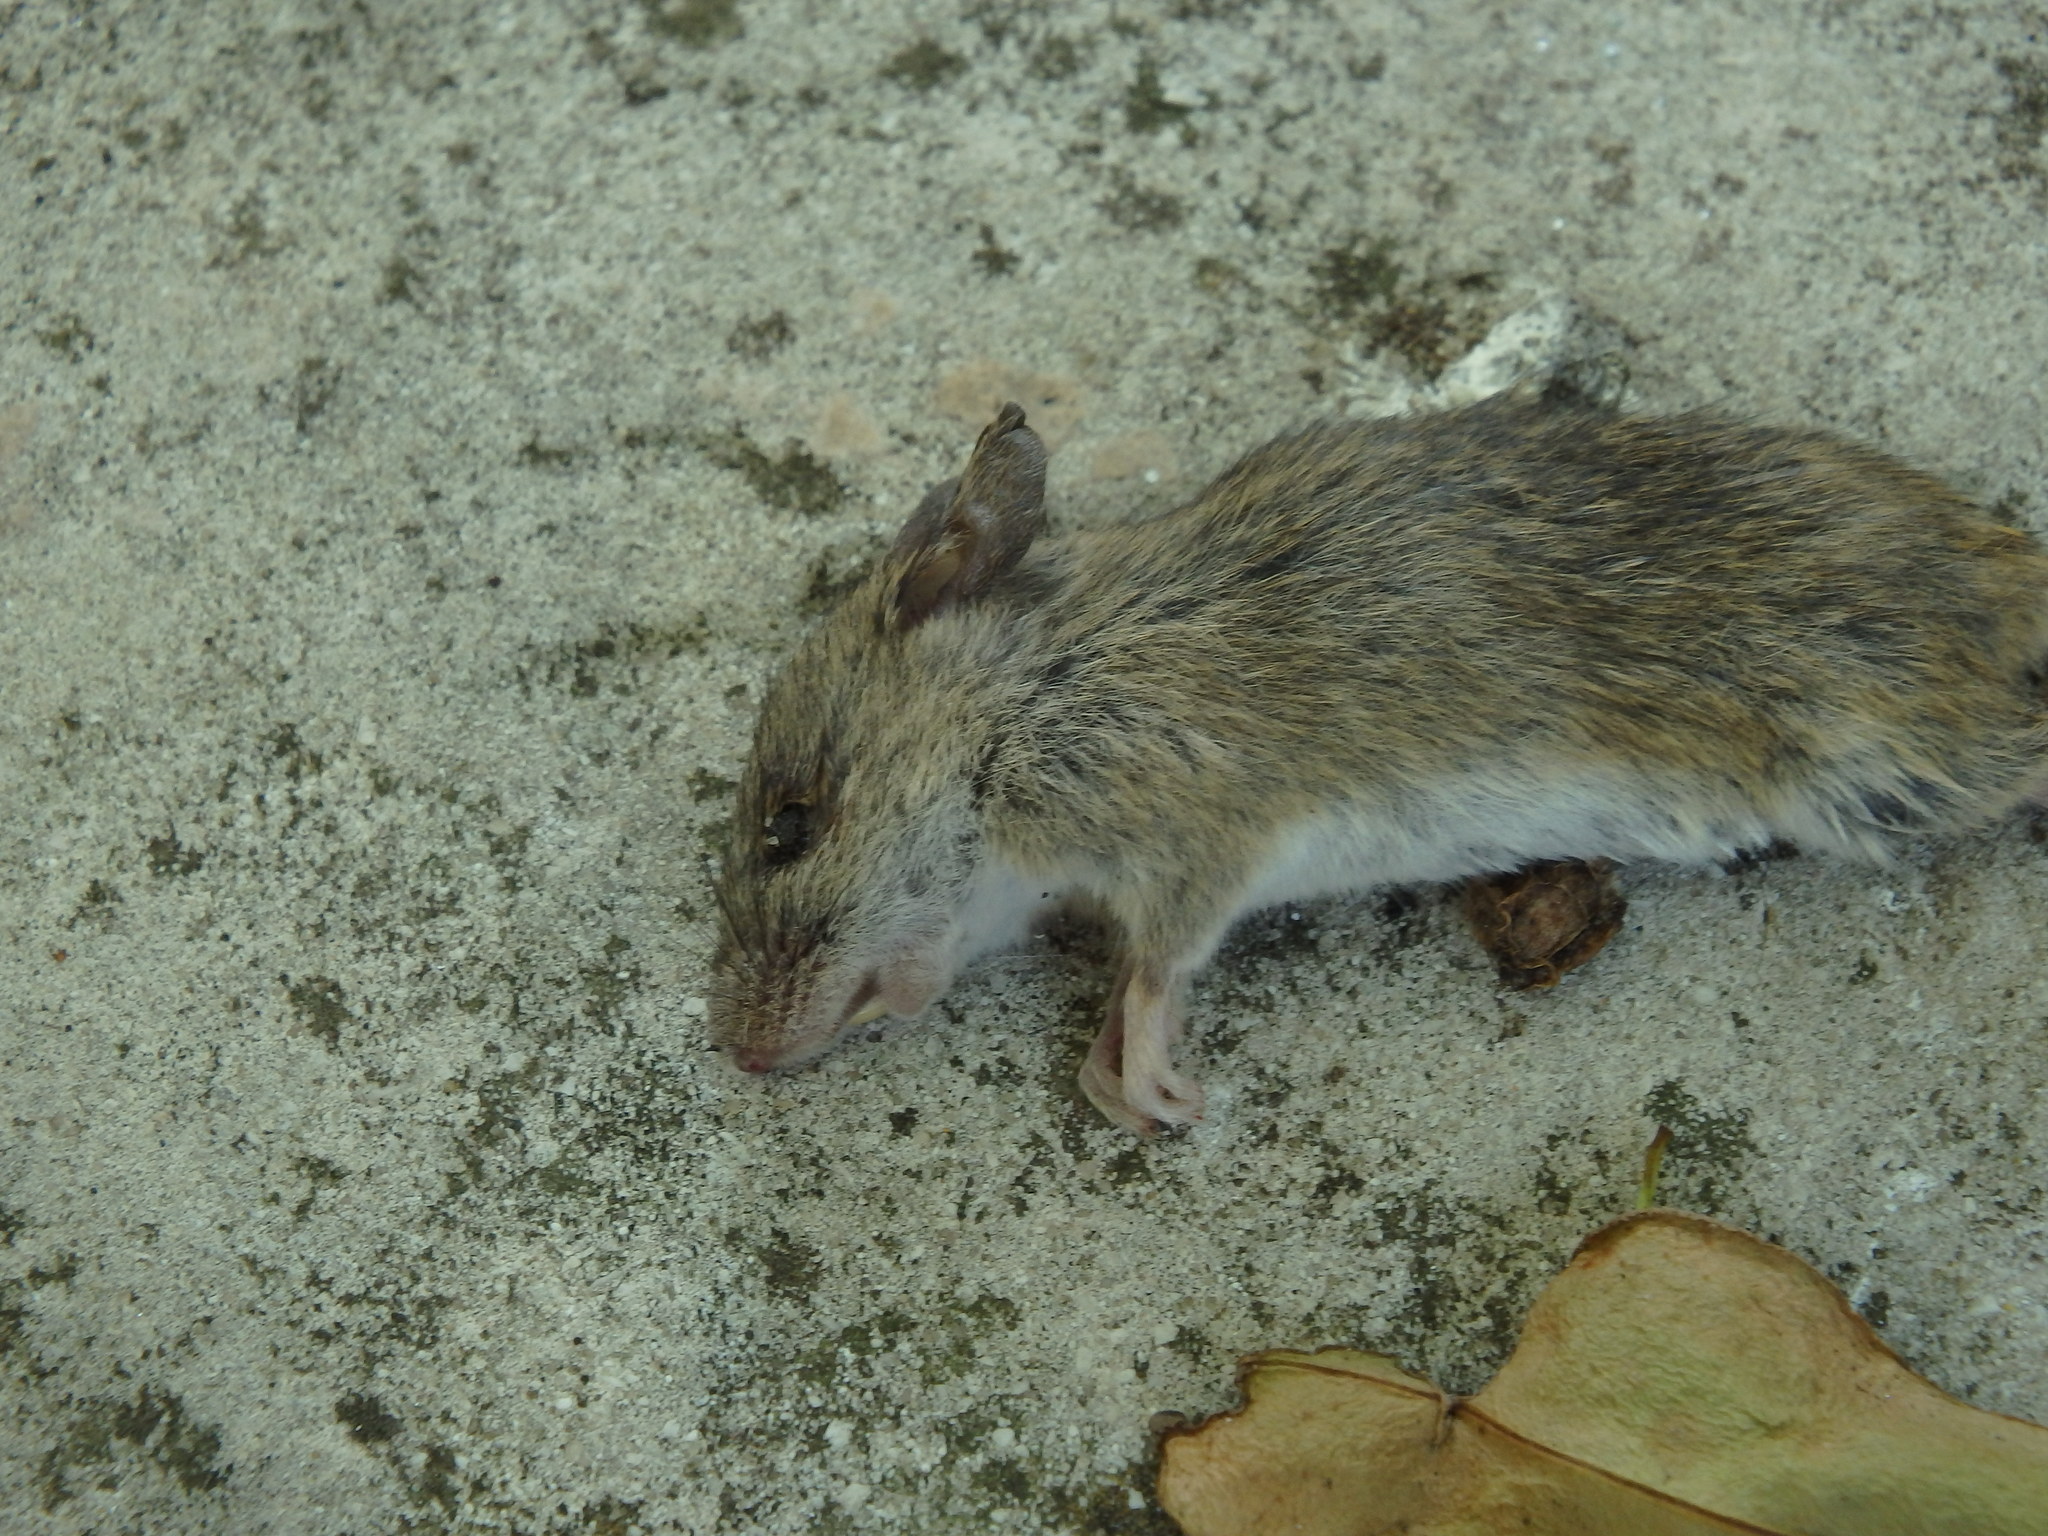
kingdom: Animalia
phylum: Chordata
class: Mammalia
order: Rodentia
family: Muridae
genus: Apodemus
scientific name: Apodemus sylvaticus
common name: Wood mouse
